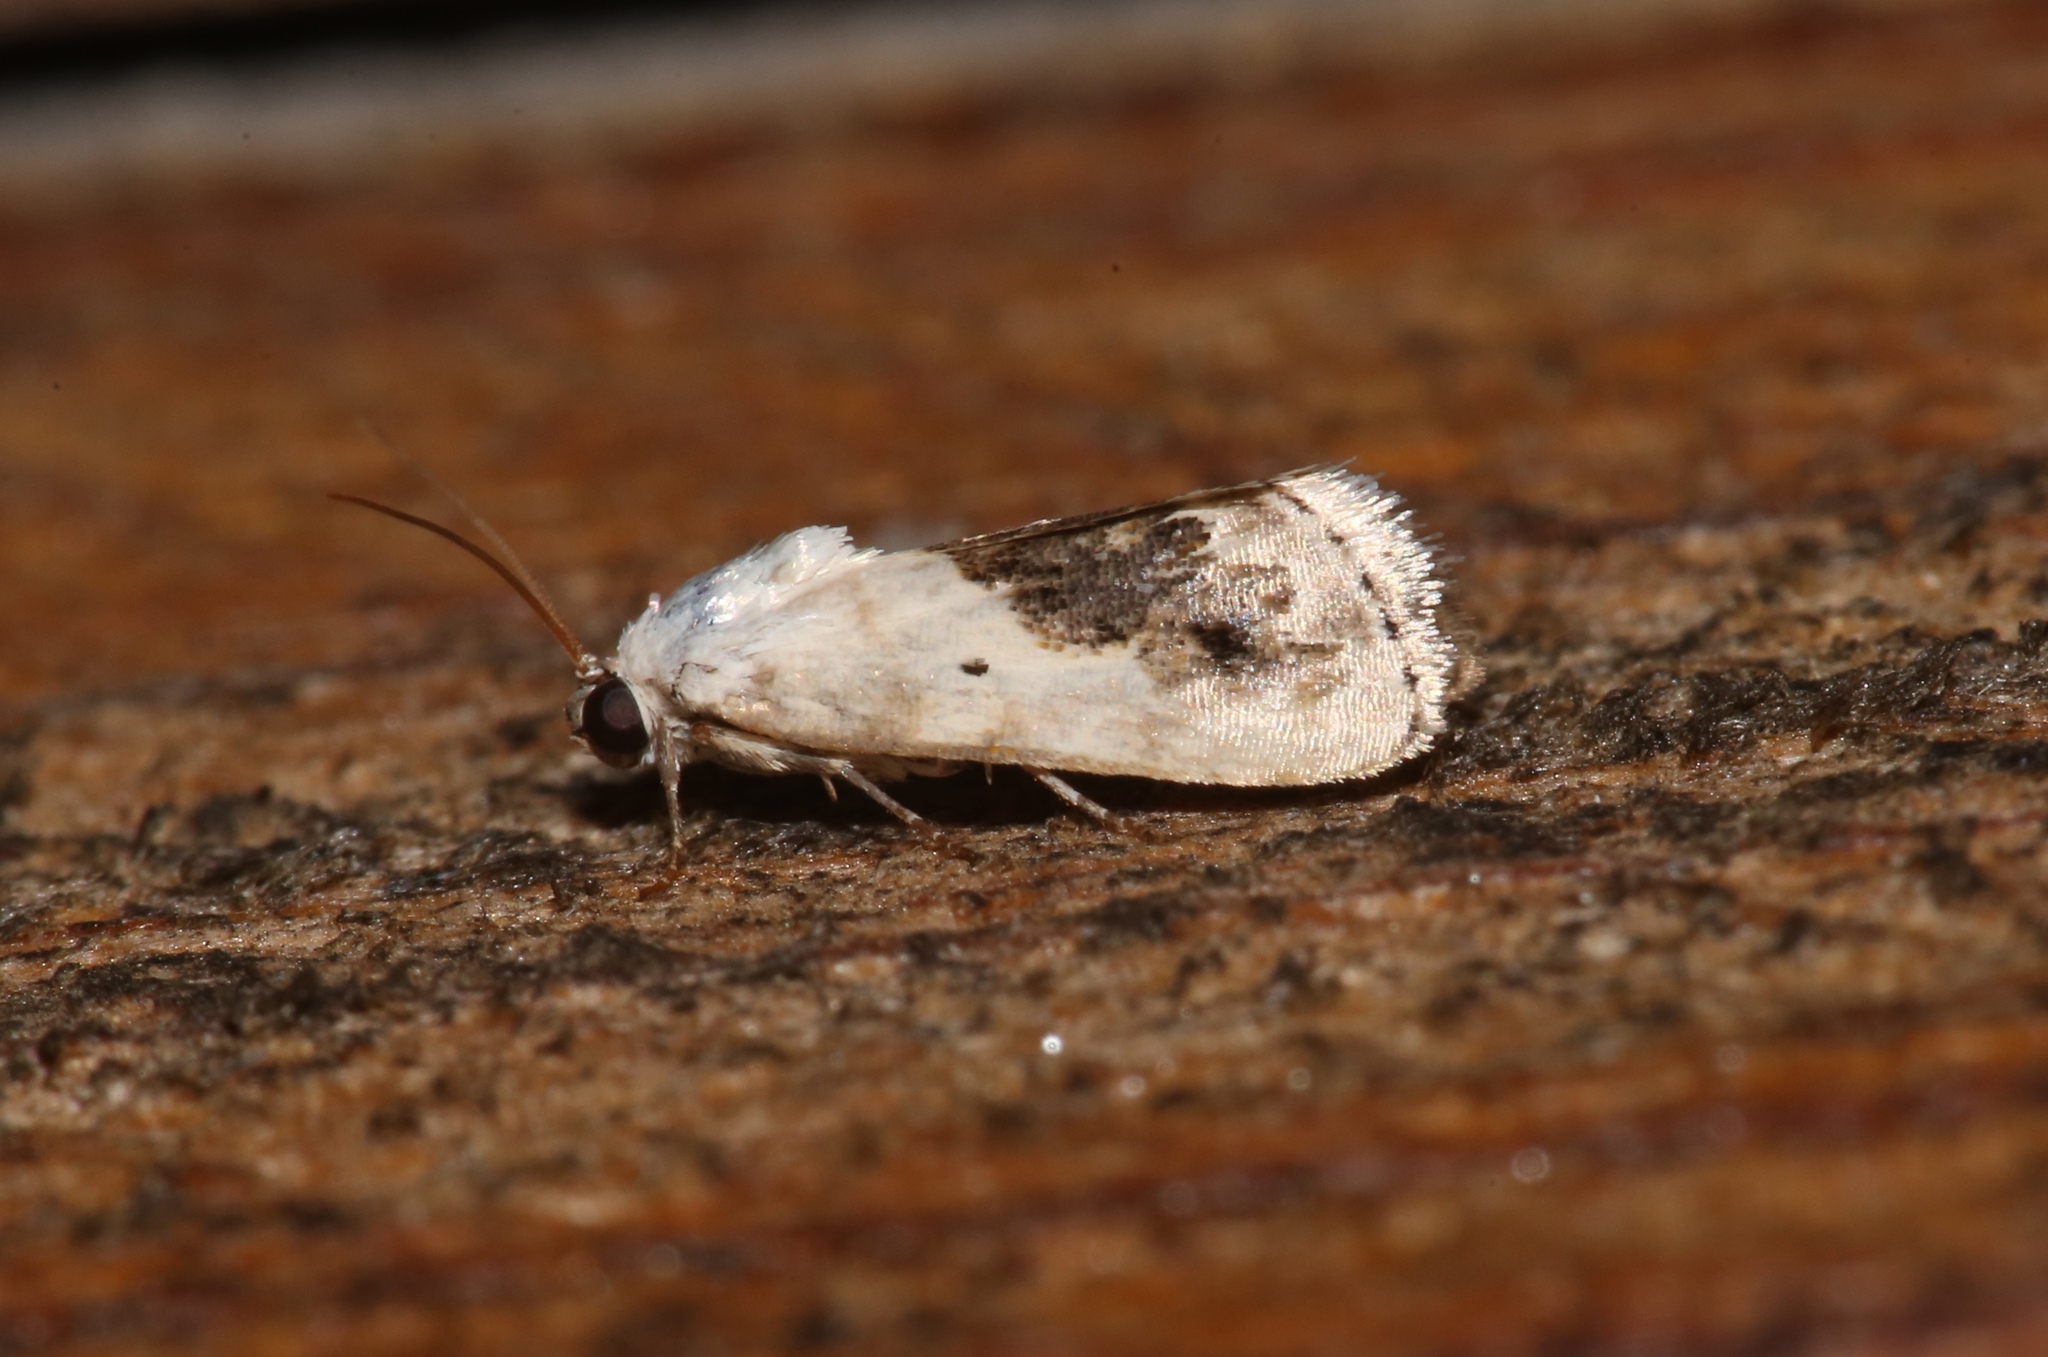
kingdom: Animalia
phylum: Arthropoda
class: Insecta
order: Lepidoptera
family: Noctuidae
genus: Acontia
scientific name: Acontia erastrioides
